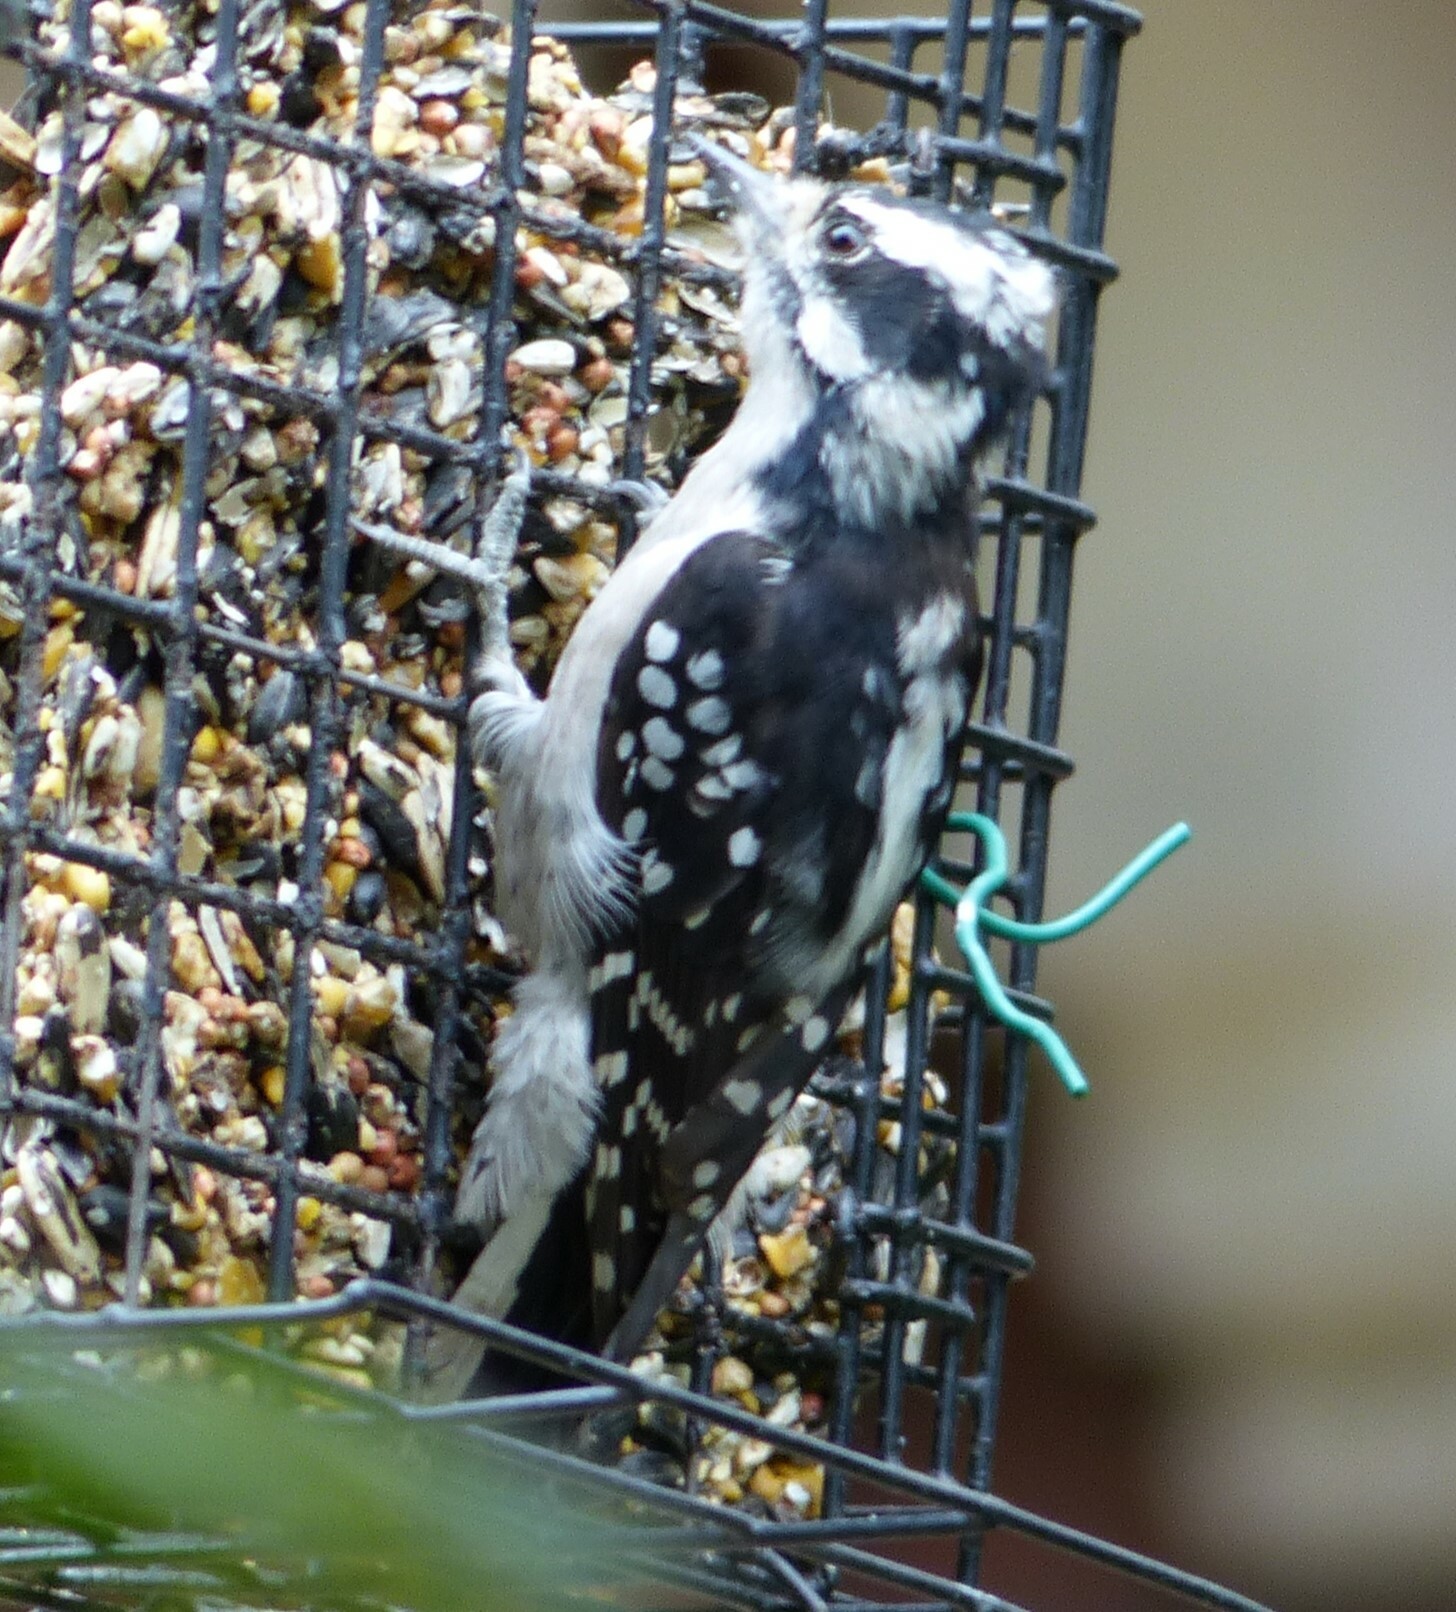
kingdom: Animalia
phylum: Chordata
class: Aves
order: Piciformes
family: Picidae
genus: Dryobates
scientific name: Dryobates pubescens
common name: Downy woodpecker
